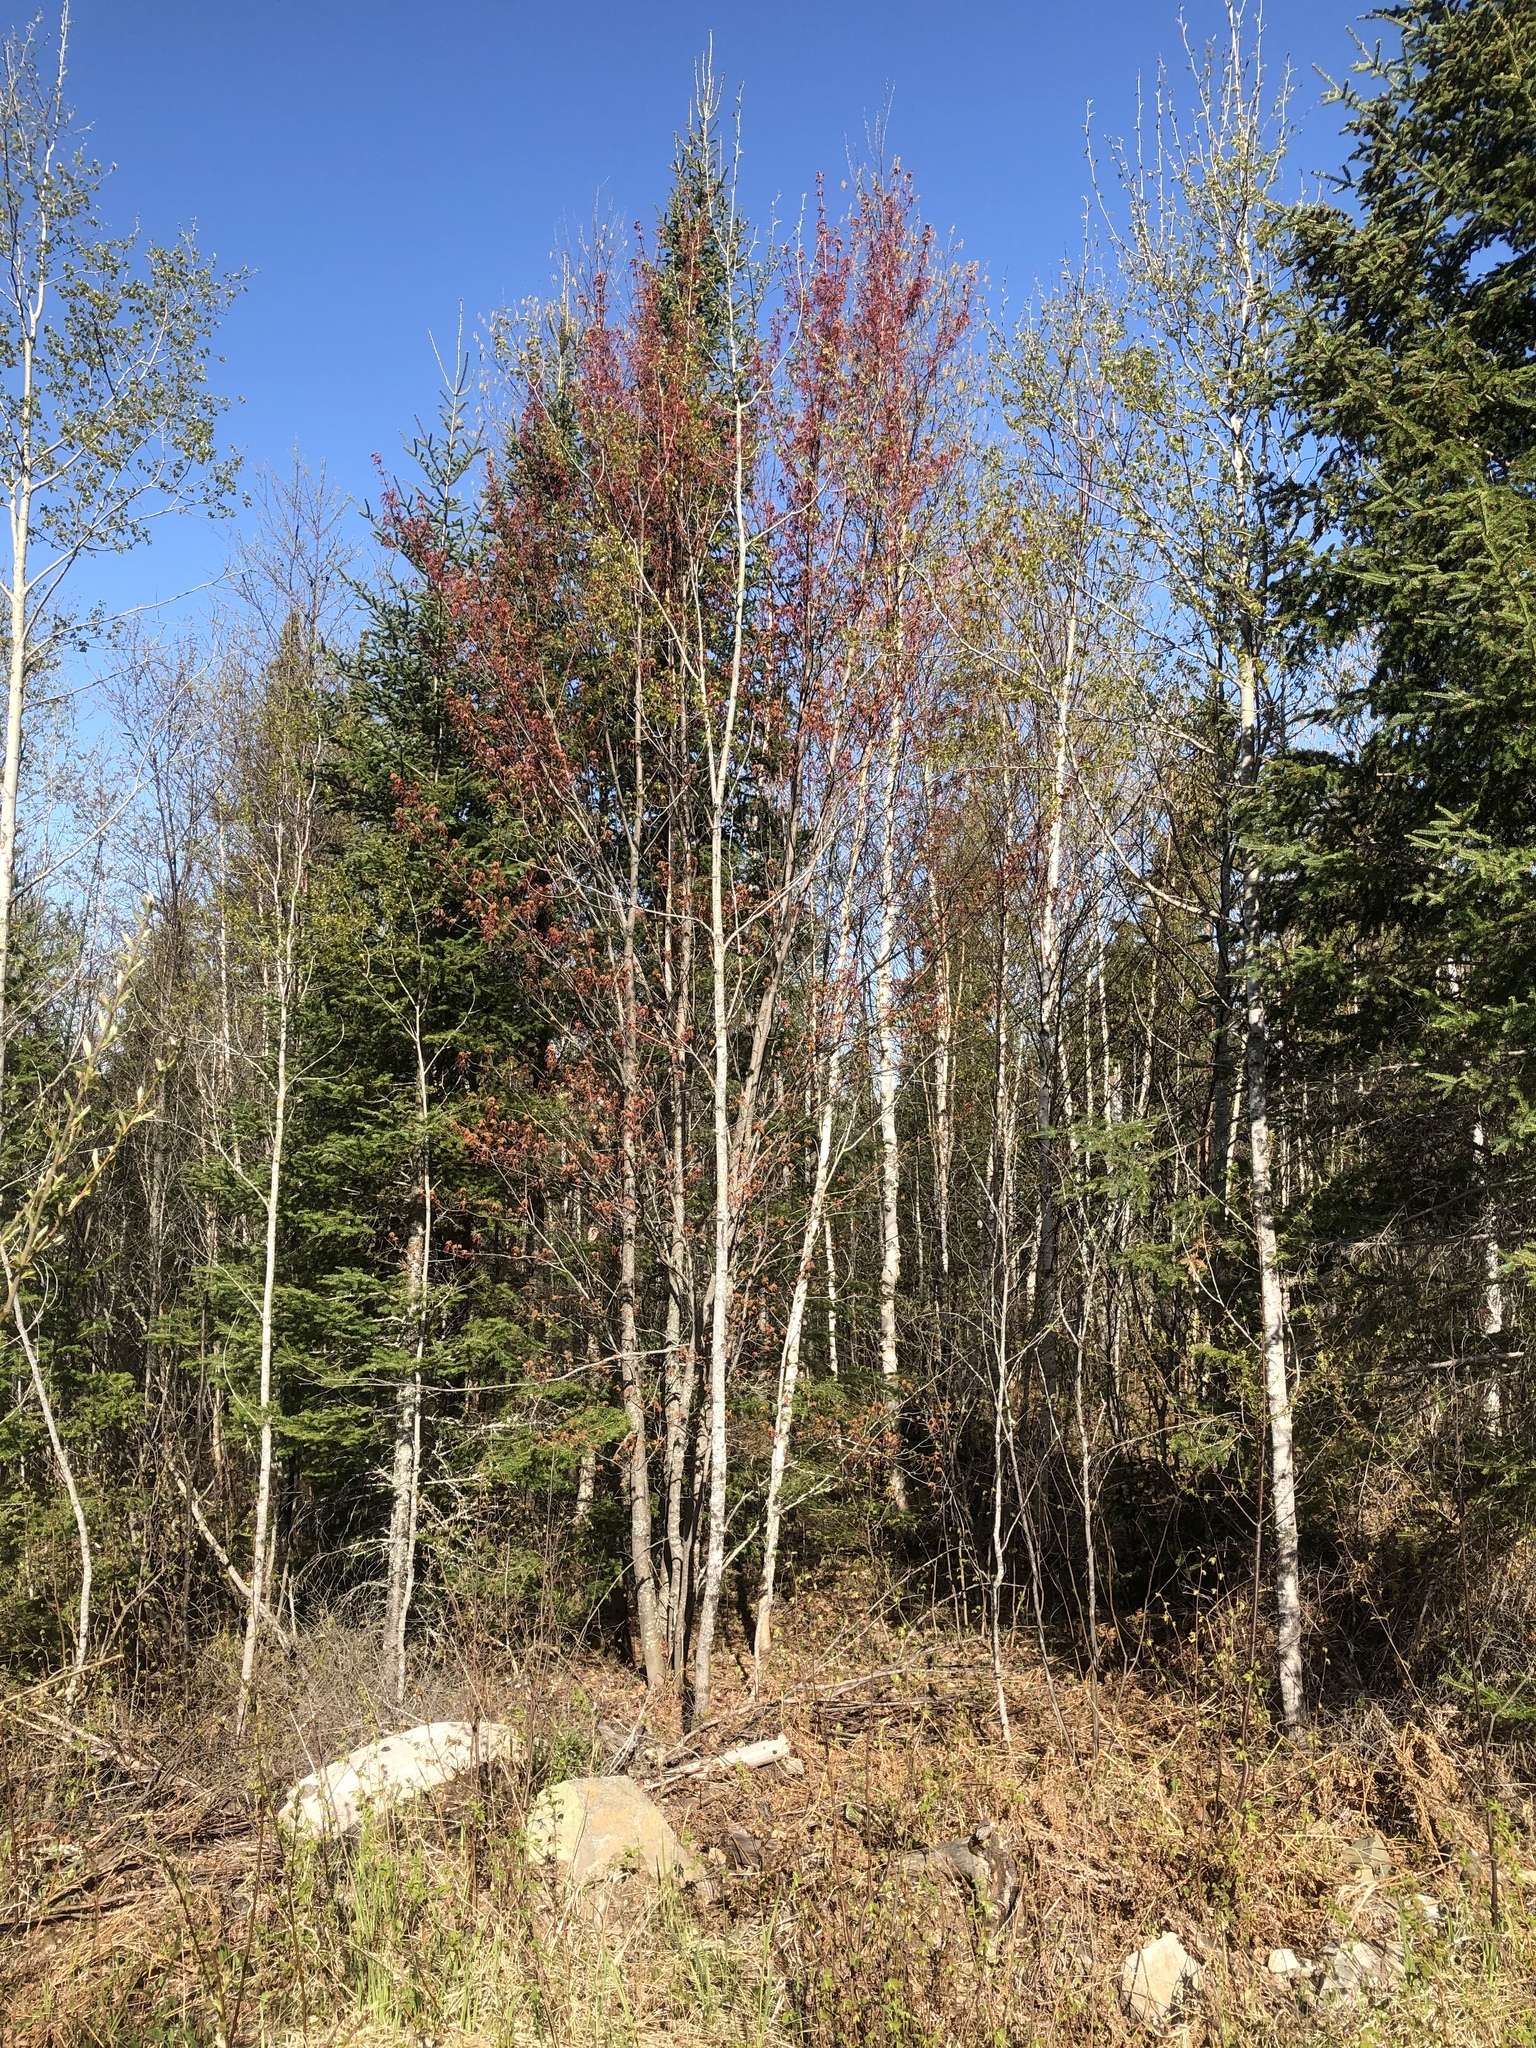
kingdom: Plantae
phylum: Tracheophyta
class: Magnoliopsida
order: Sapindales
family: Sapindaceae
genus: Acer
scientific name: Acer rubrum
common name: Red maple
